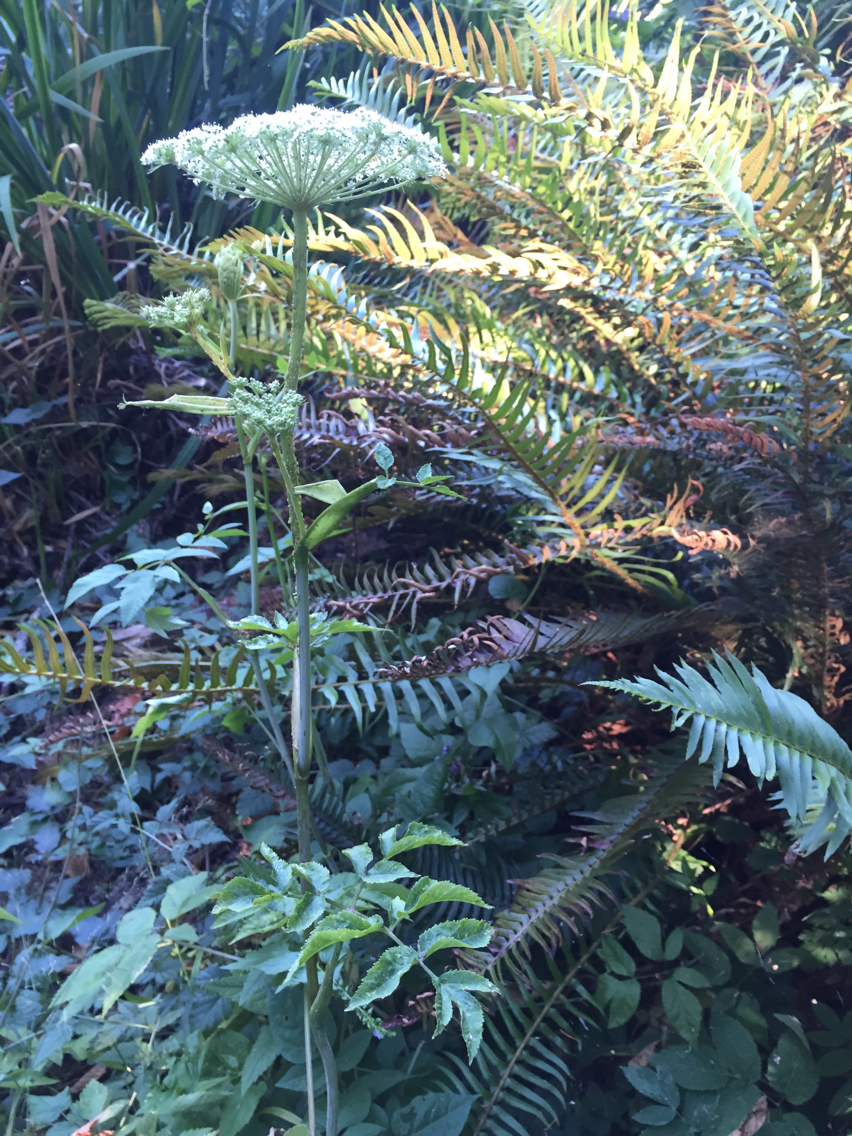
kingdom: Plantae
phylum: Tracheophyta
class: Magnoliopsida
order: Apiales
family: Apiaceae
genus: Angelica
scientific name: Angelica genuflexa
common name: Kneeling angelica
